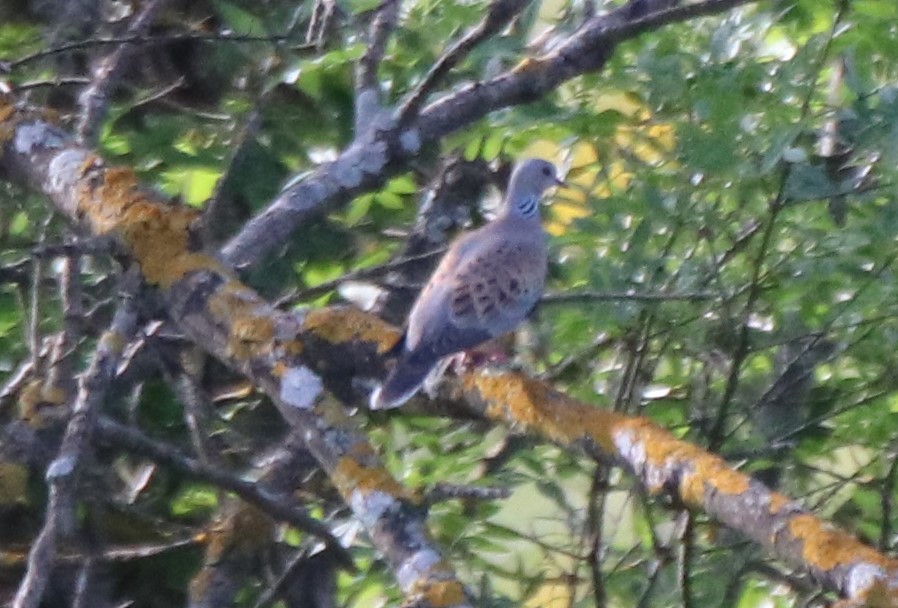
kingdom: Animalia
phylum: Chordata
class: Aves
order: Columbiformes
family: Columbidae
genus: Streptopelia
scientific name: Streptopelia turtur
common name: European turtle dove
